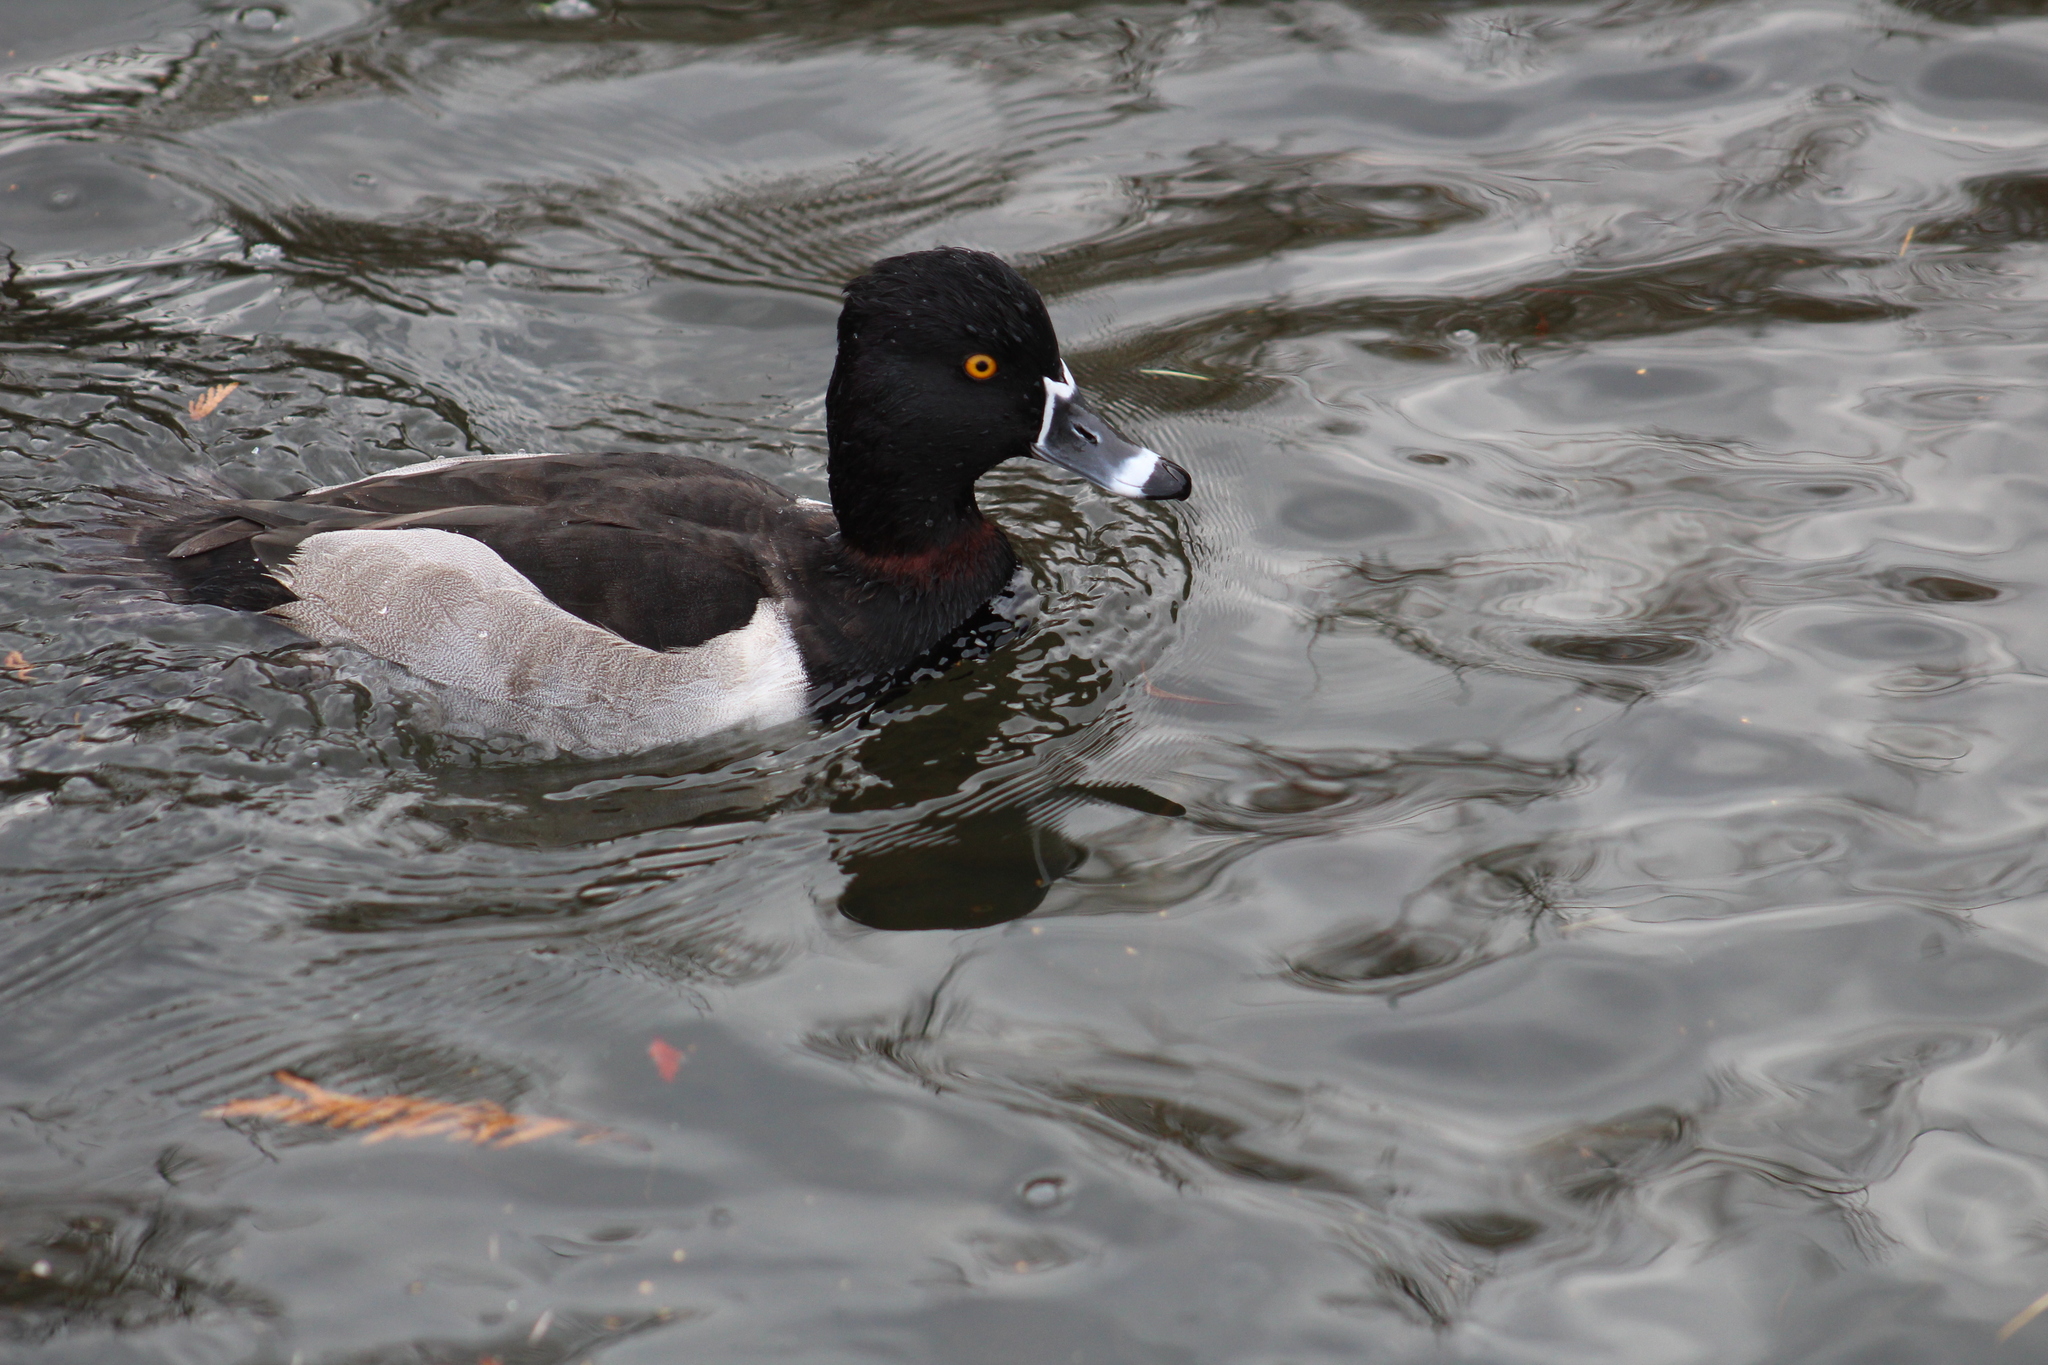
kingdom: Animalia
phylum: Chordata
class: Aves
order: Anseriformes
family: Anatidae
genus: Aythya
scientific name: Aythya collaris
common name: Ring-necked duck
